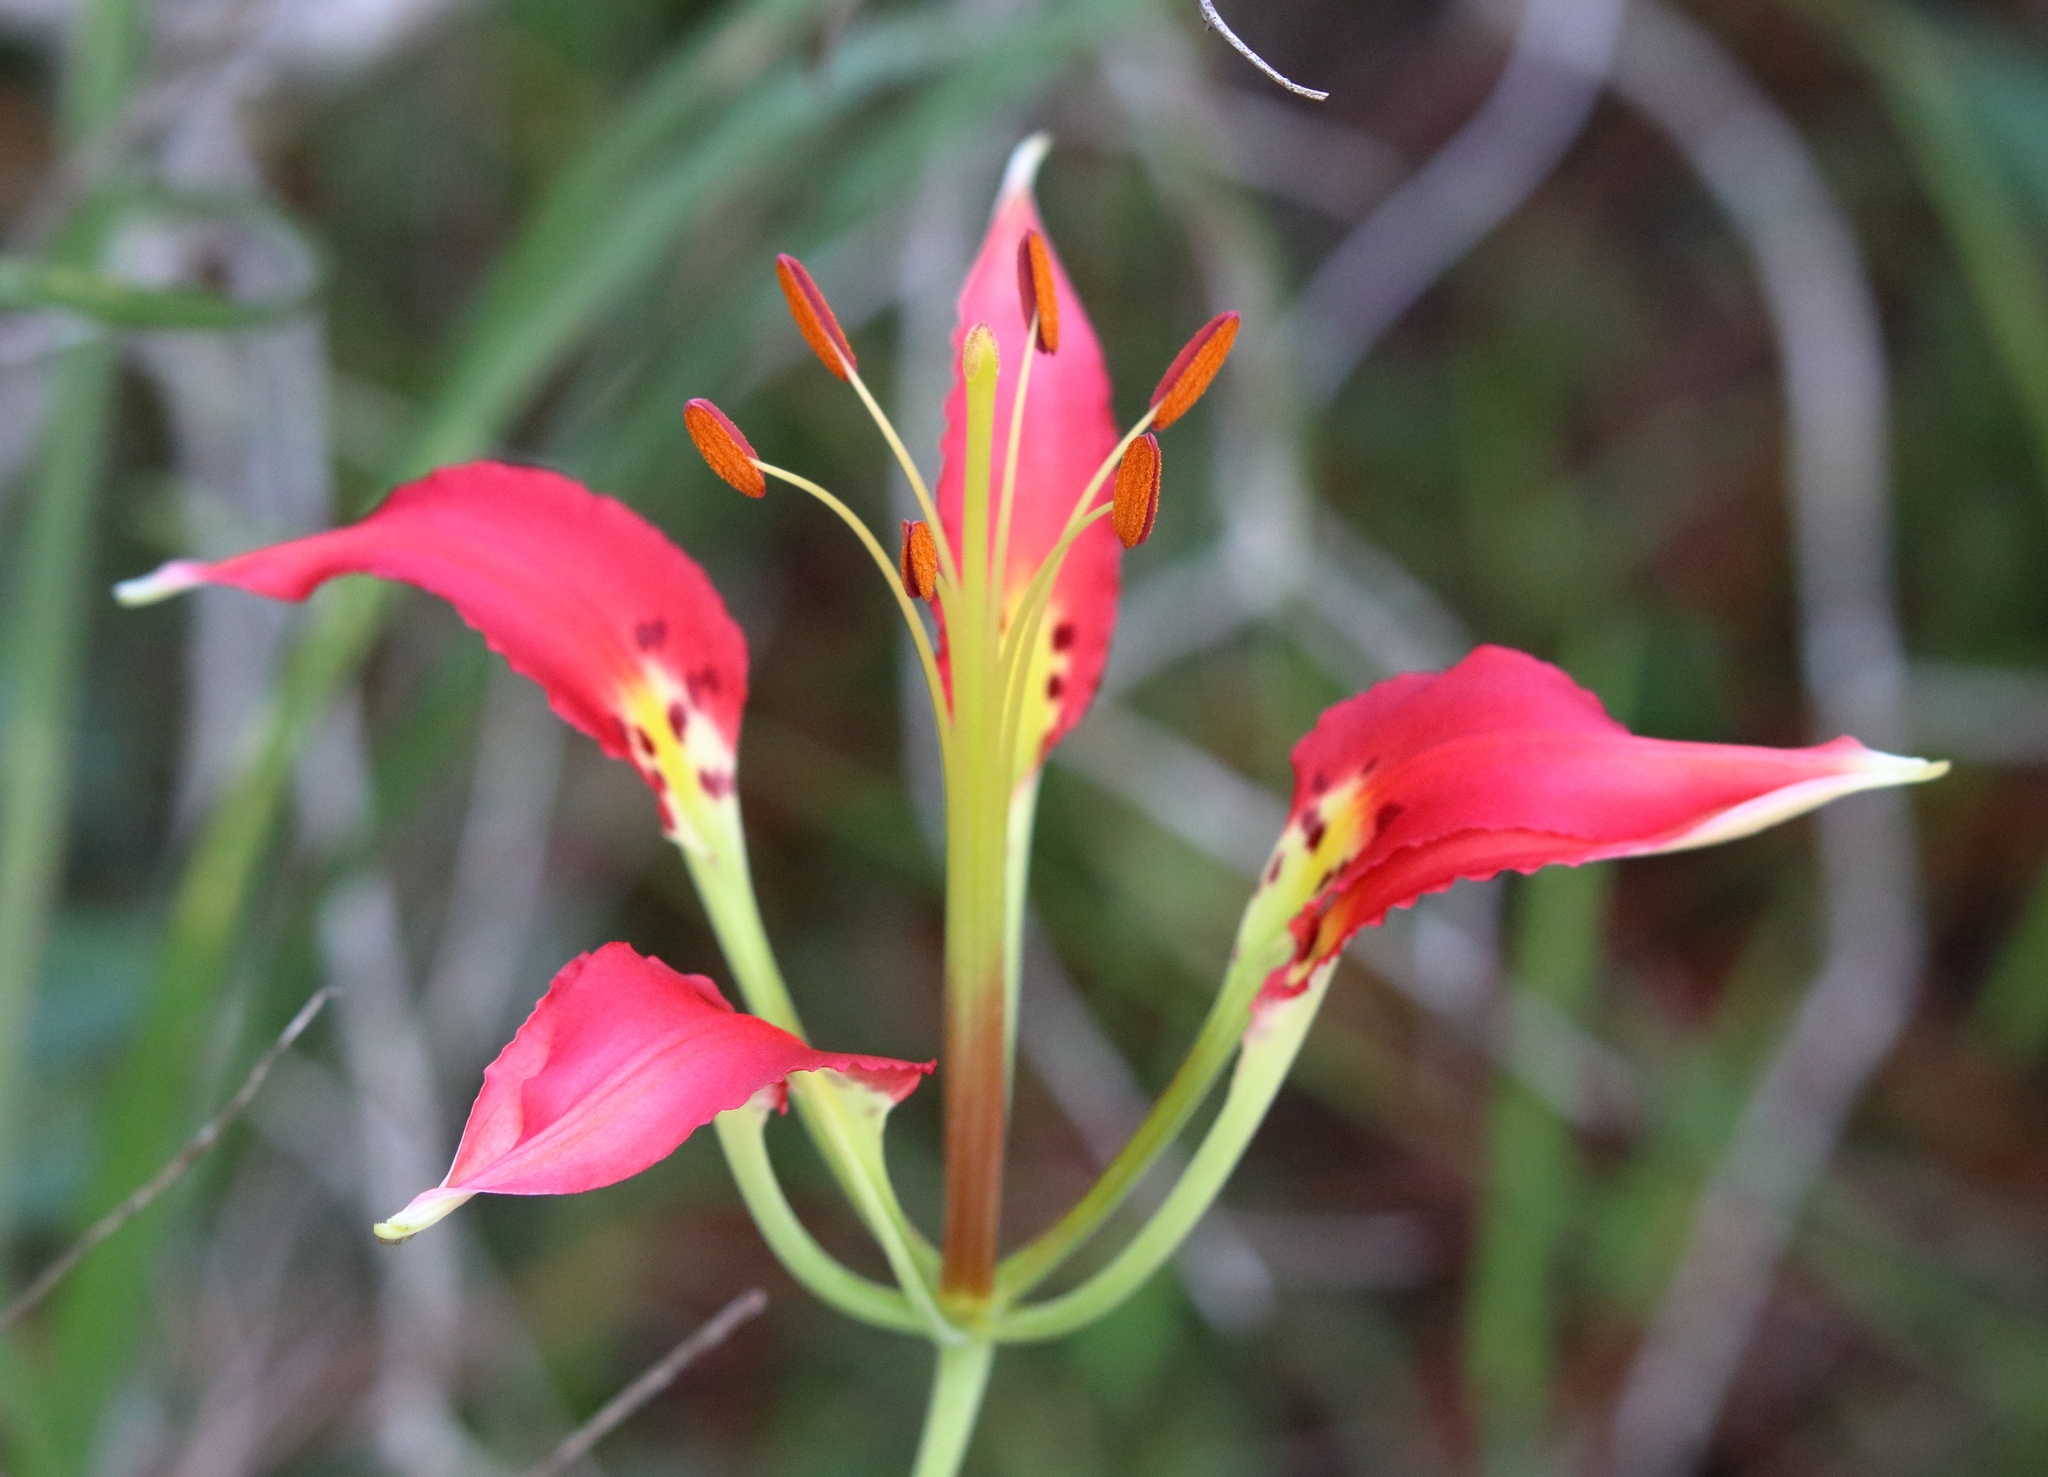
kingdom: Plantae
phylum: Tracheophyta
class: Liliopsida
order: Liliales
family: Liliaceae
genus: Lilium
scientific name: Lilium catesbaei
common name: Catesby's lily
